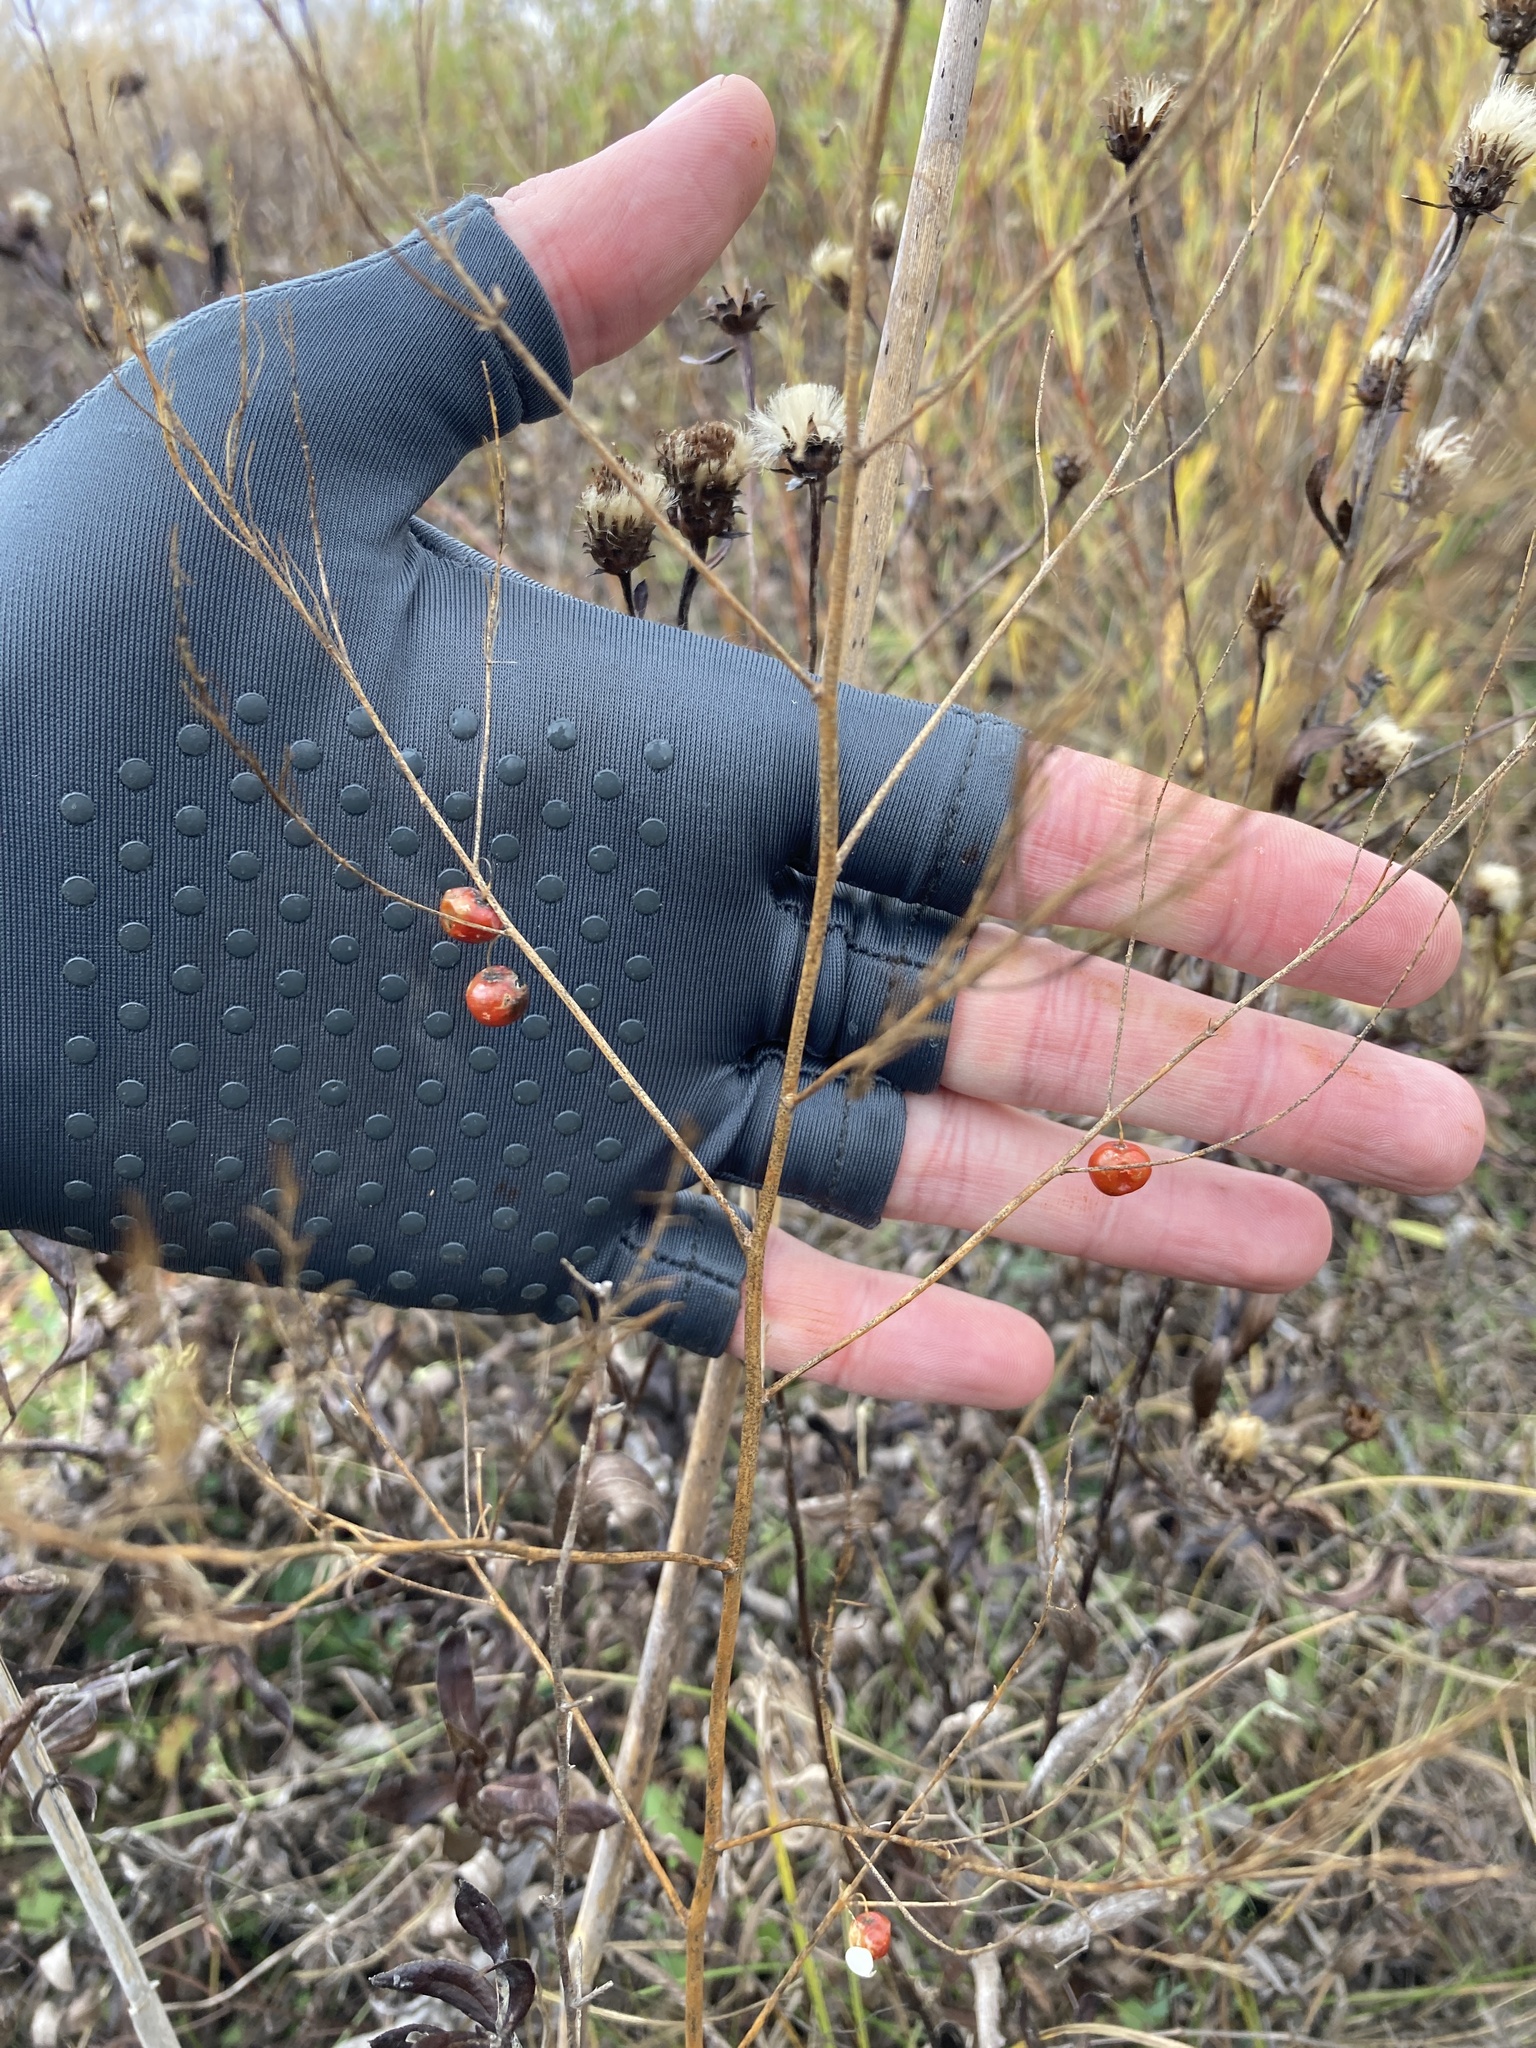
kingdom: Plantae
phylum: Tracheophyta
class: Liliopsida
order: Asparagales
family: Asparagaceae
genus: Asparagus
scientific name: Asparagus officinalis
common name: Garden asparagus
